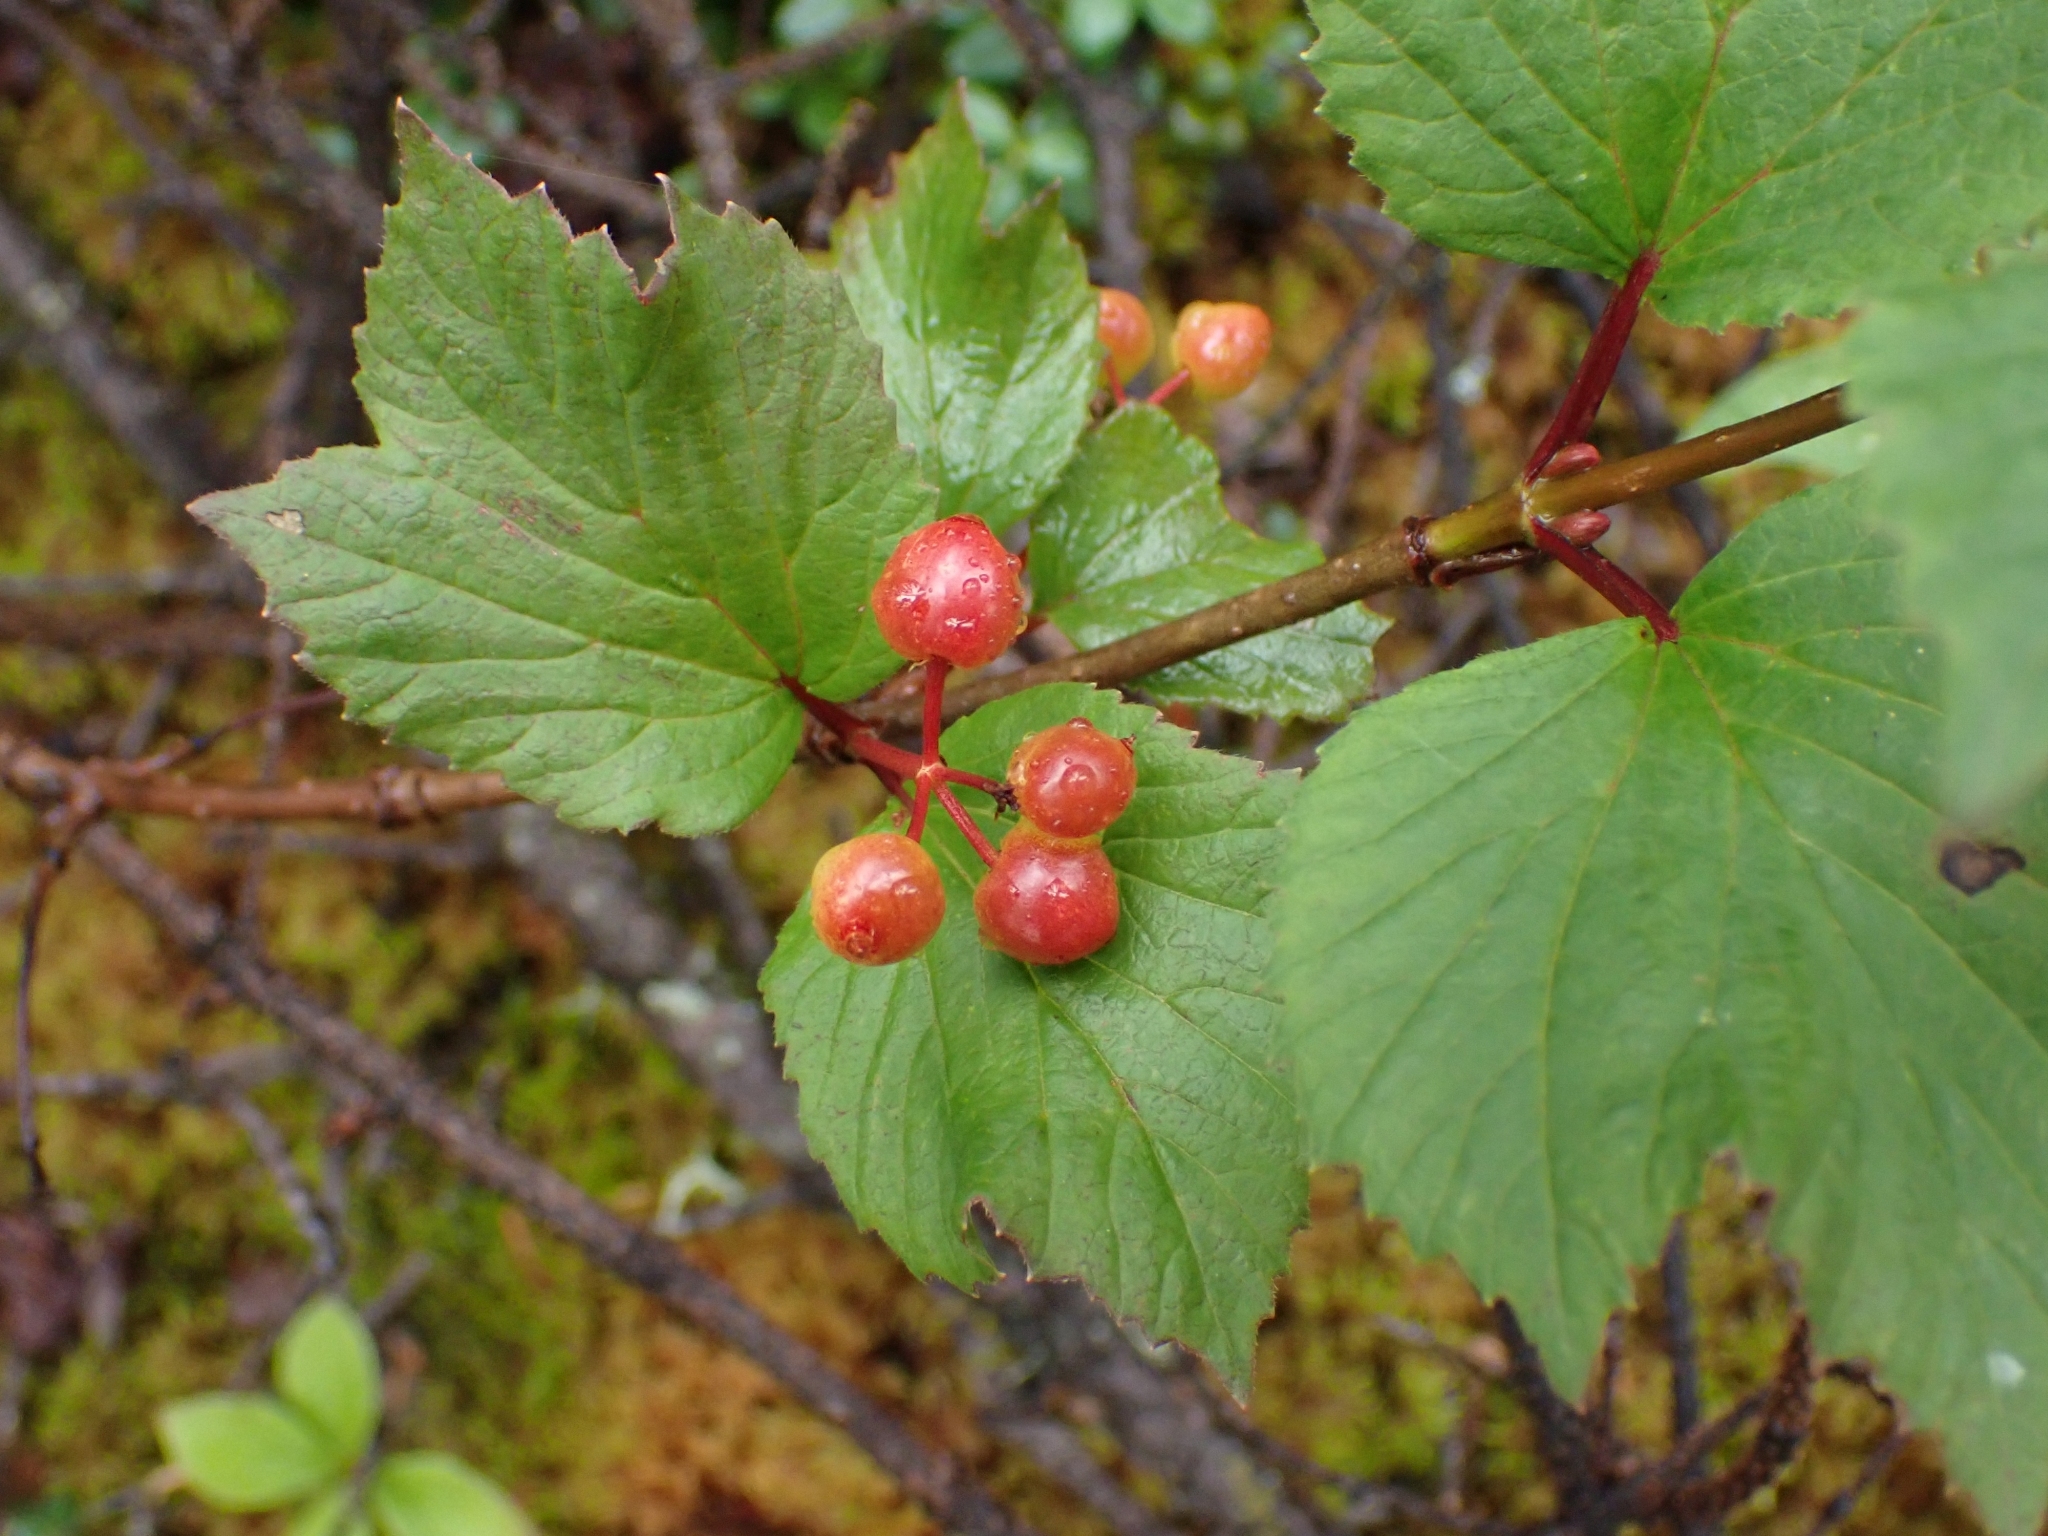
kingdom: Plantae
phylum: Tracheophyta
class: Magnoliopsida
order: Dipsacales
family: Viburnaceae
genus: Viburnum
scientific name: Viburnum edule
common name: Mooseberry
